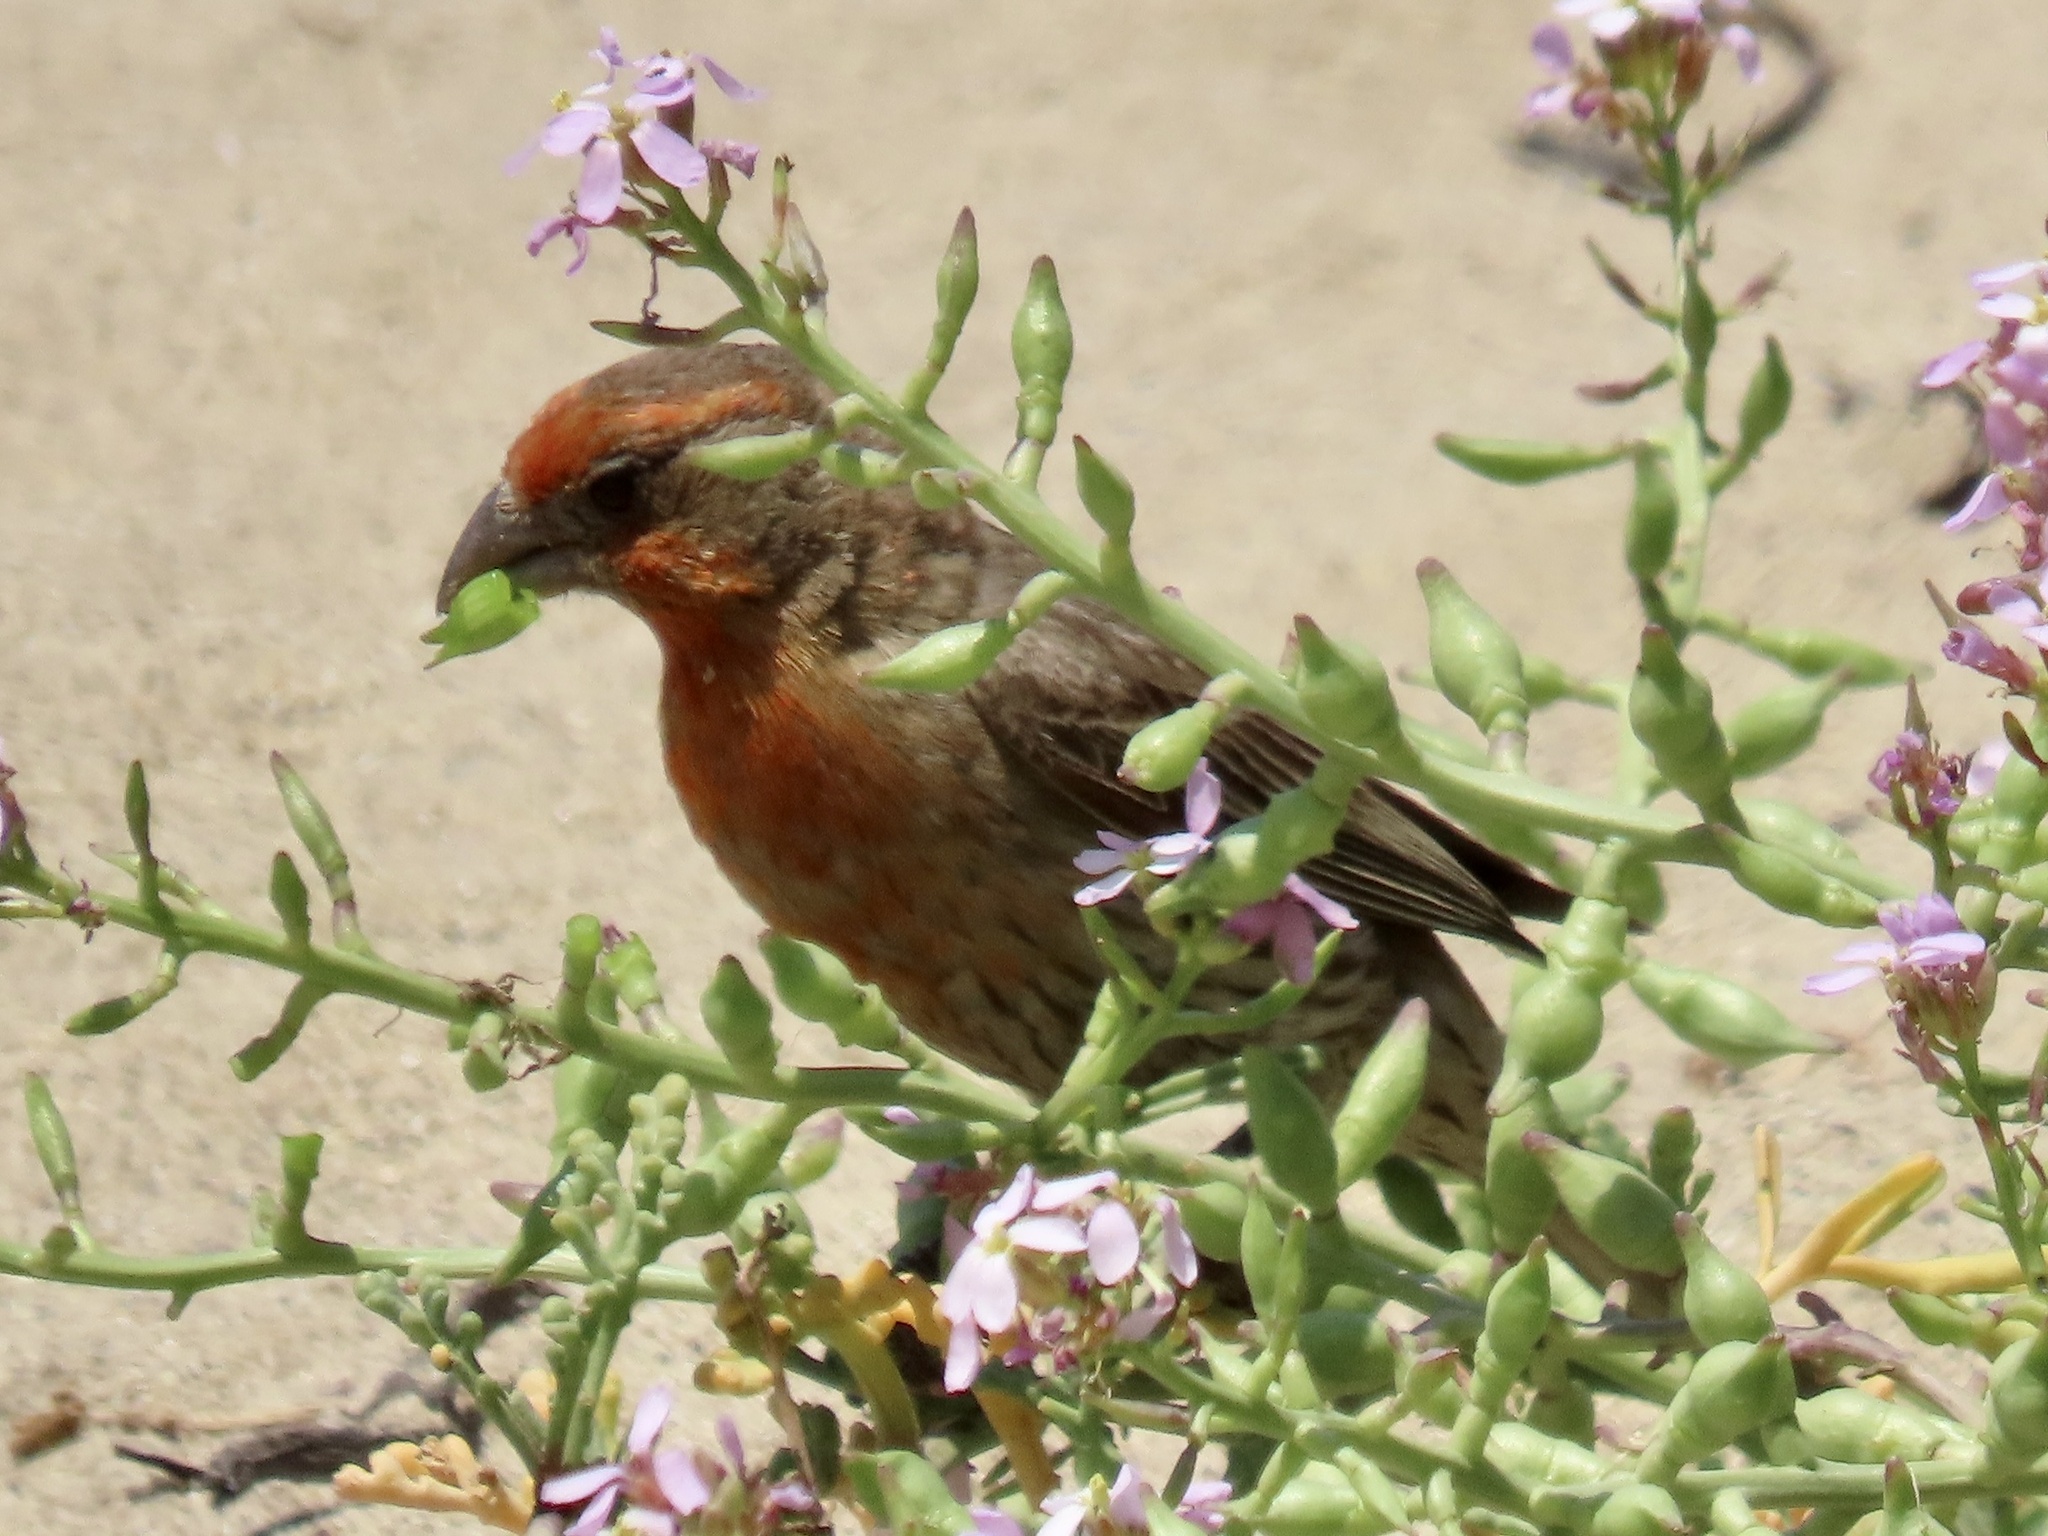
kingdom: Animalia
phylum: Chordata
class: Aves
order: Passeriformes
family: Fringillidae
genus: Haemorhous
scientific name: Haemorhous mexicanus
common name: House finch
